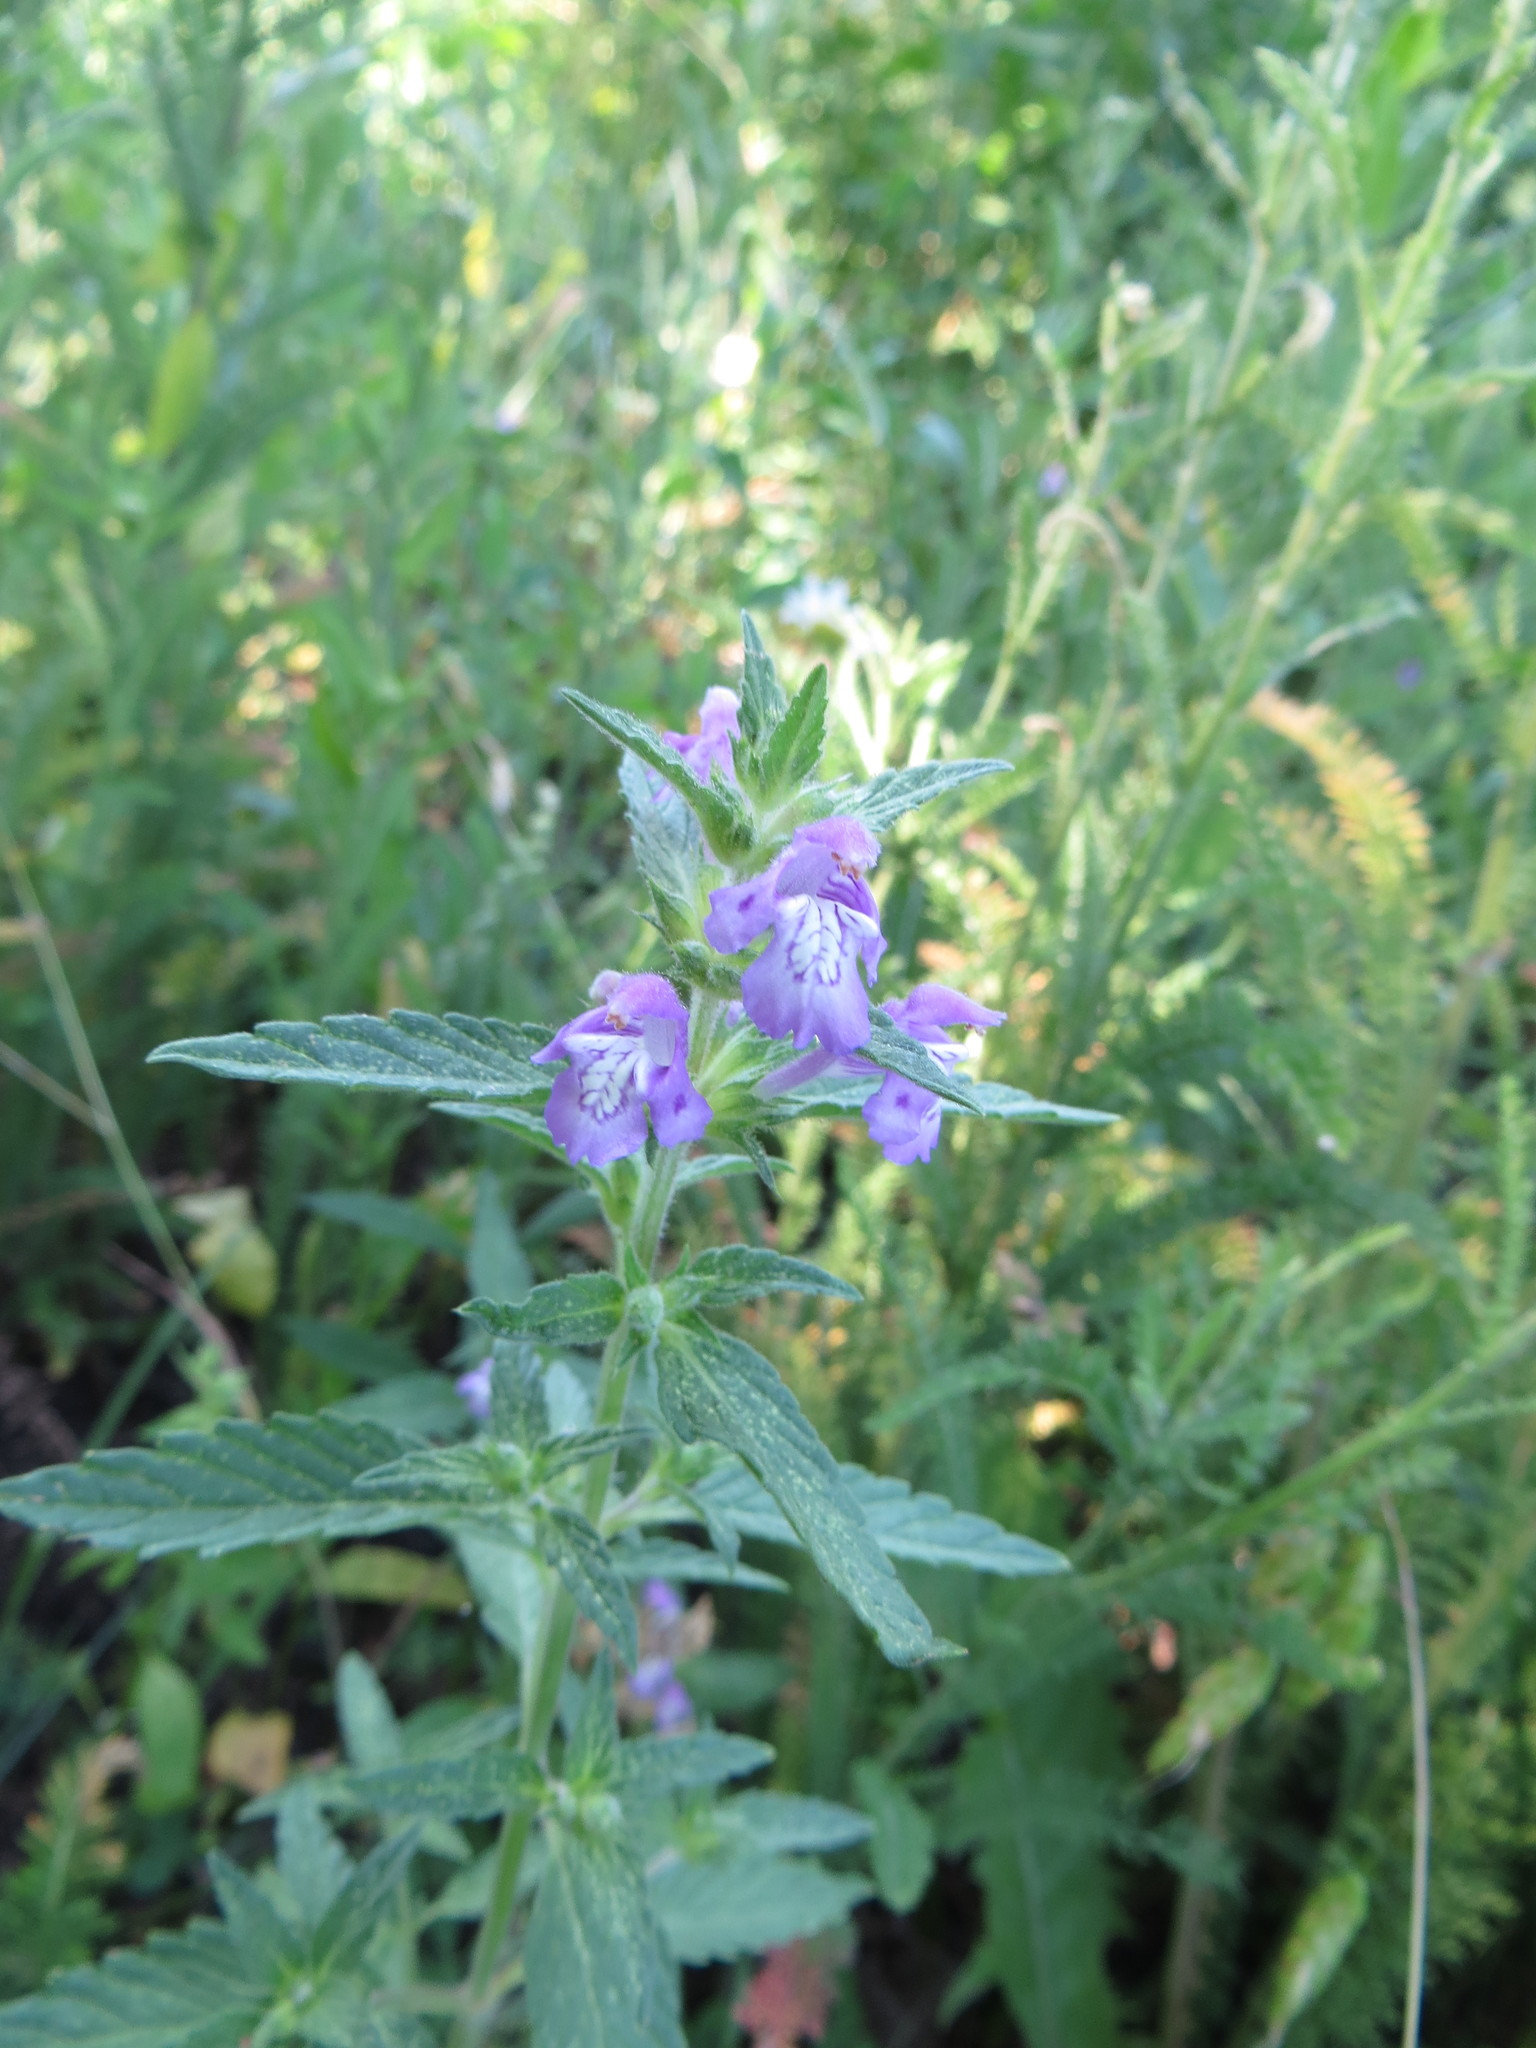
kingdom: Plantae
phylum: Tracheophyta
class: Magnoliopsida
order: Lamiales
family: Lamiaceae
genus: Galeopsis
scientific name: Galeopsis ladanum
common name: Broad-leaved hemp-nettle
